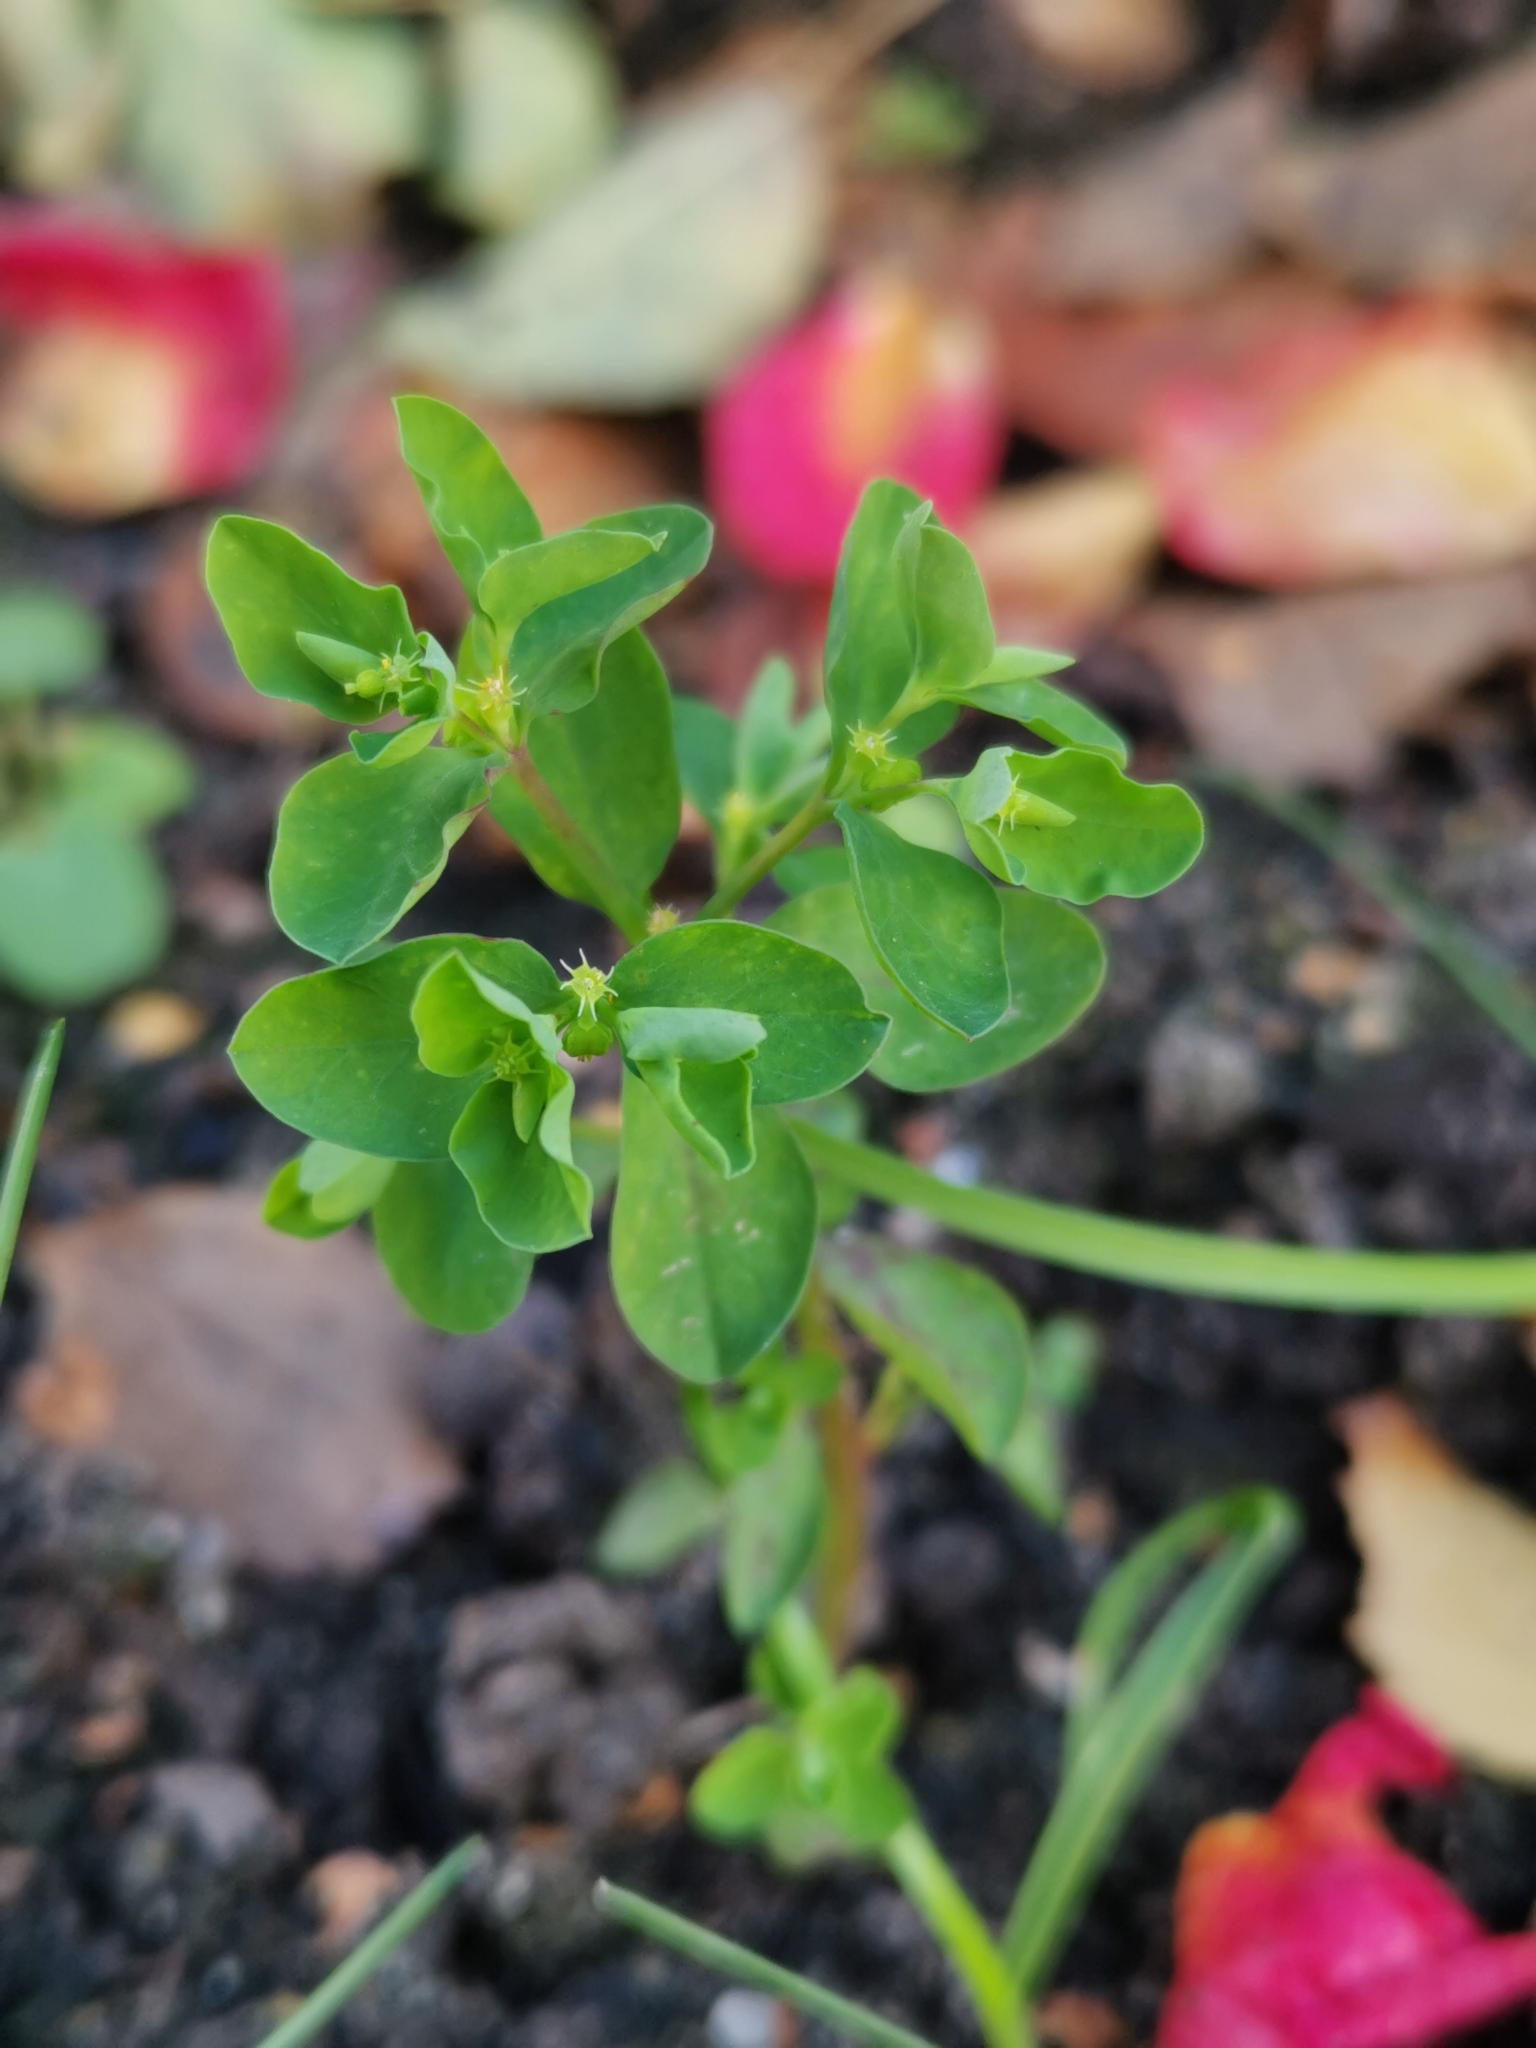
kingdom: Plantae
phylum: Tracheophyta
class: Magnoliopsida
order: Malpighiales
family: Euphorbiaceae
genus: Euphorbia
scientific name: Euphorbia peplus
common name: Petty spurge
